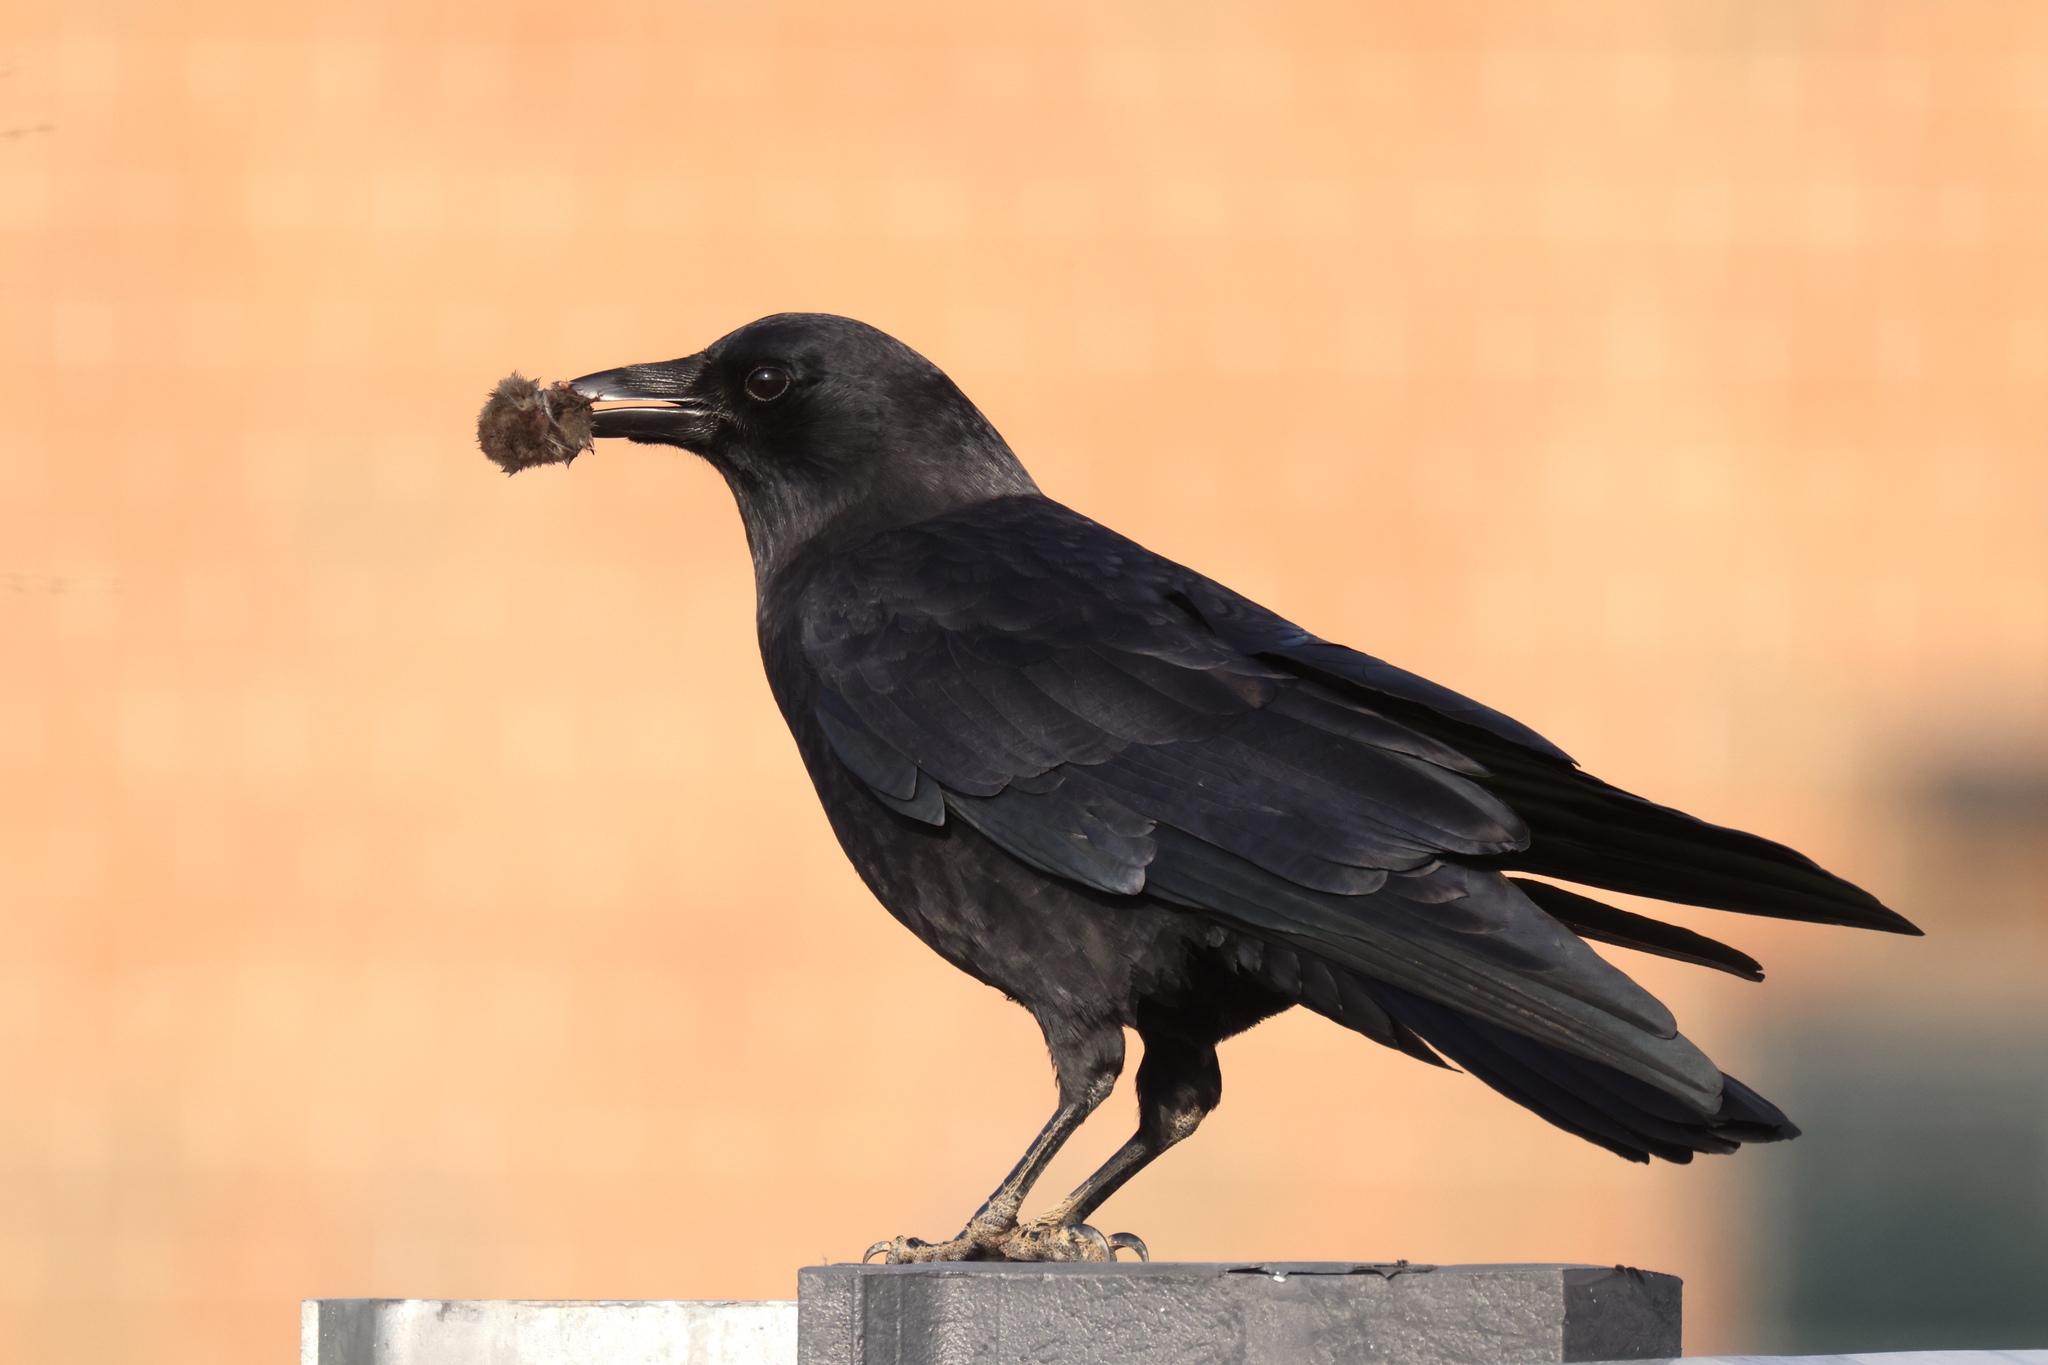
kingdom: Animalia
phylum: Chordata
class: Aves
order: Passeriformes
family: Corvidae
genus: Corvus
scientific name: Corvus ossifragus
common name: Fish crow
